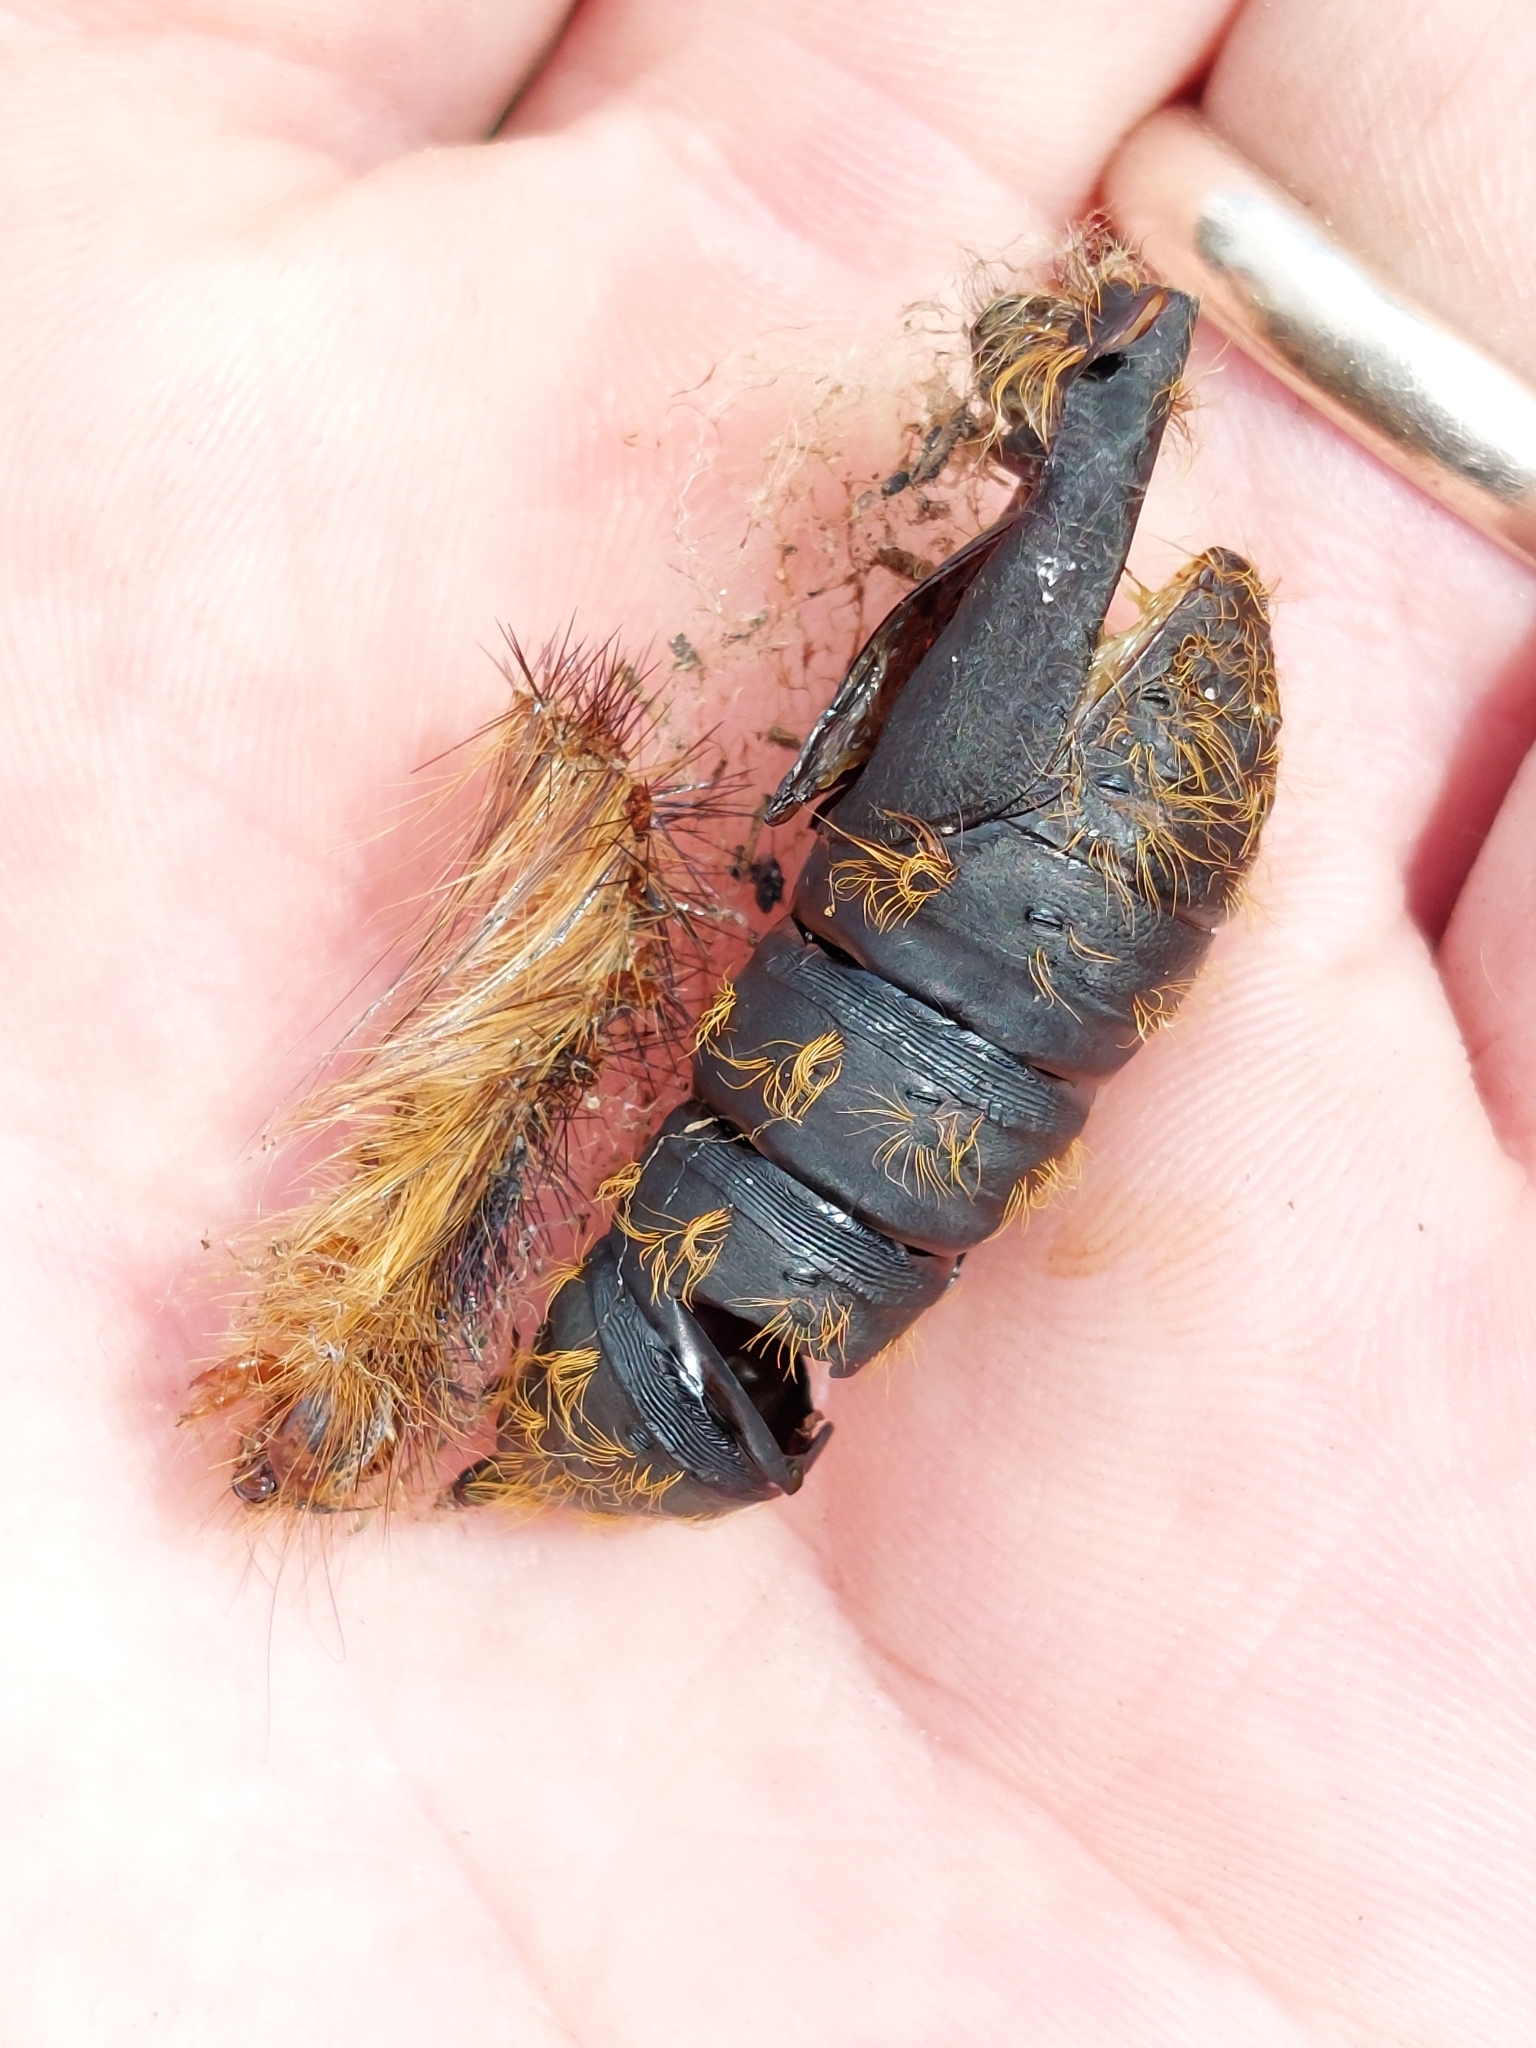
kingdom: Animalia
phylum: Arthropoda
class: Insecta
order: Lepidoptera
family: Erebidae
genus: Lymantria
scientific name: Lymantria dispar
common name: Gypsy moth
